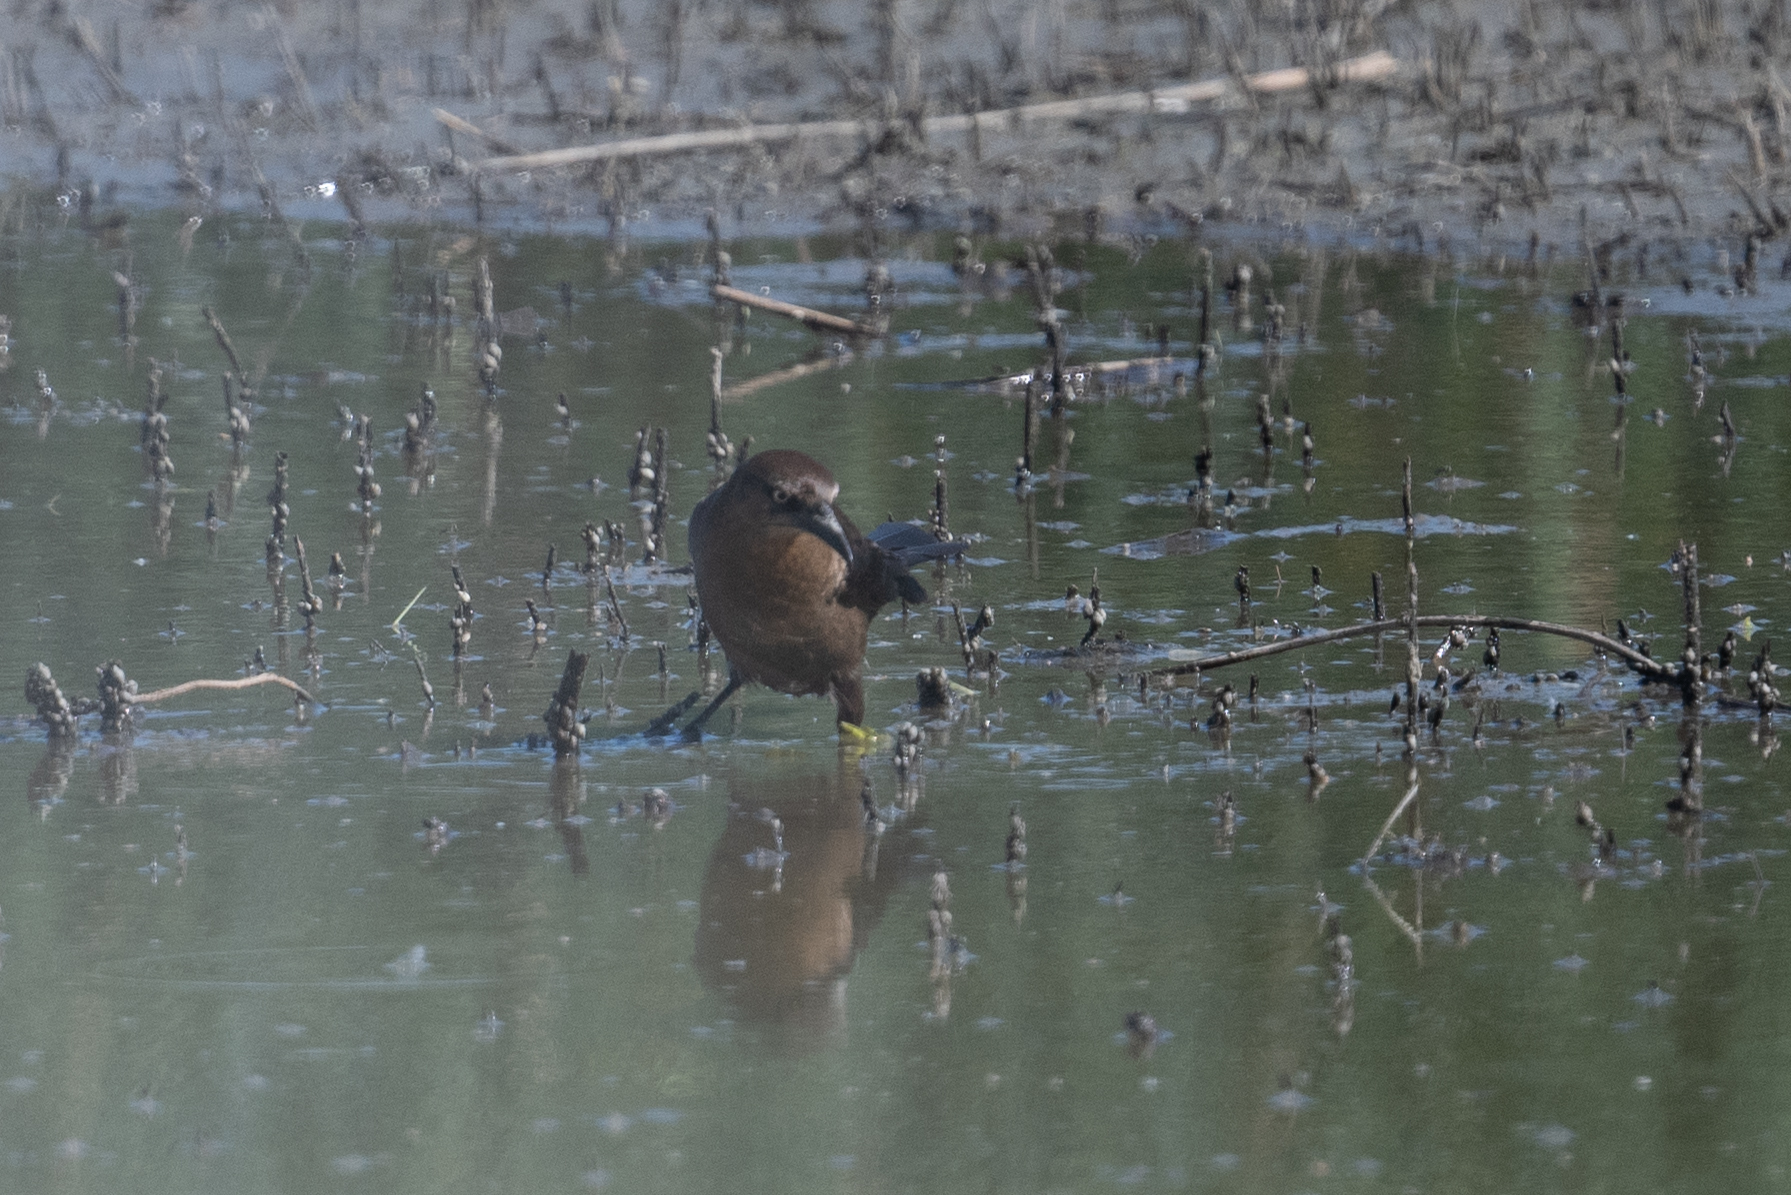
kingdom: Animalia
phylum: Chordata
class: Aves
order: Passeriformes
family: Icteridae
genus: Quiscalus
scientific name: Quiscalus mexicanus
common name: Great-tailed grackle
